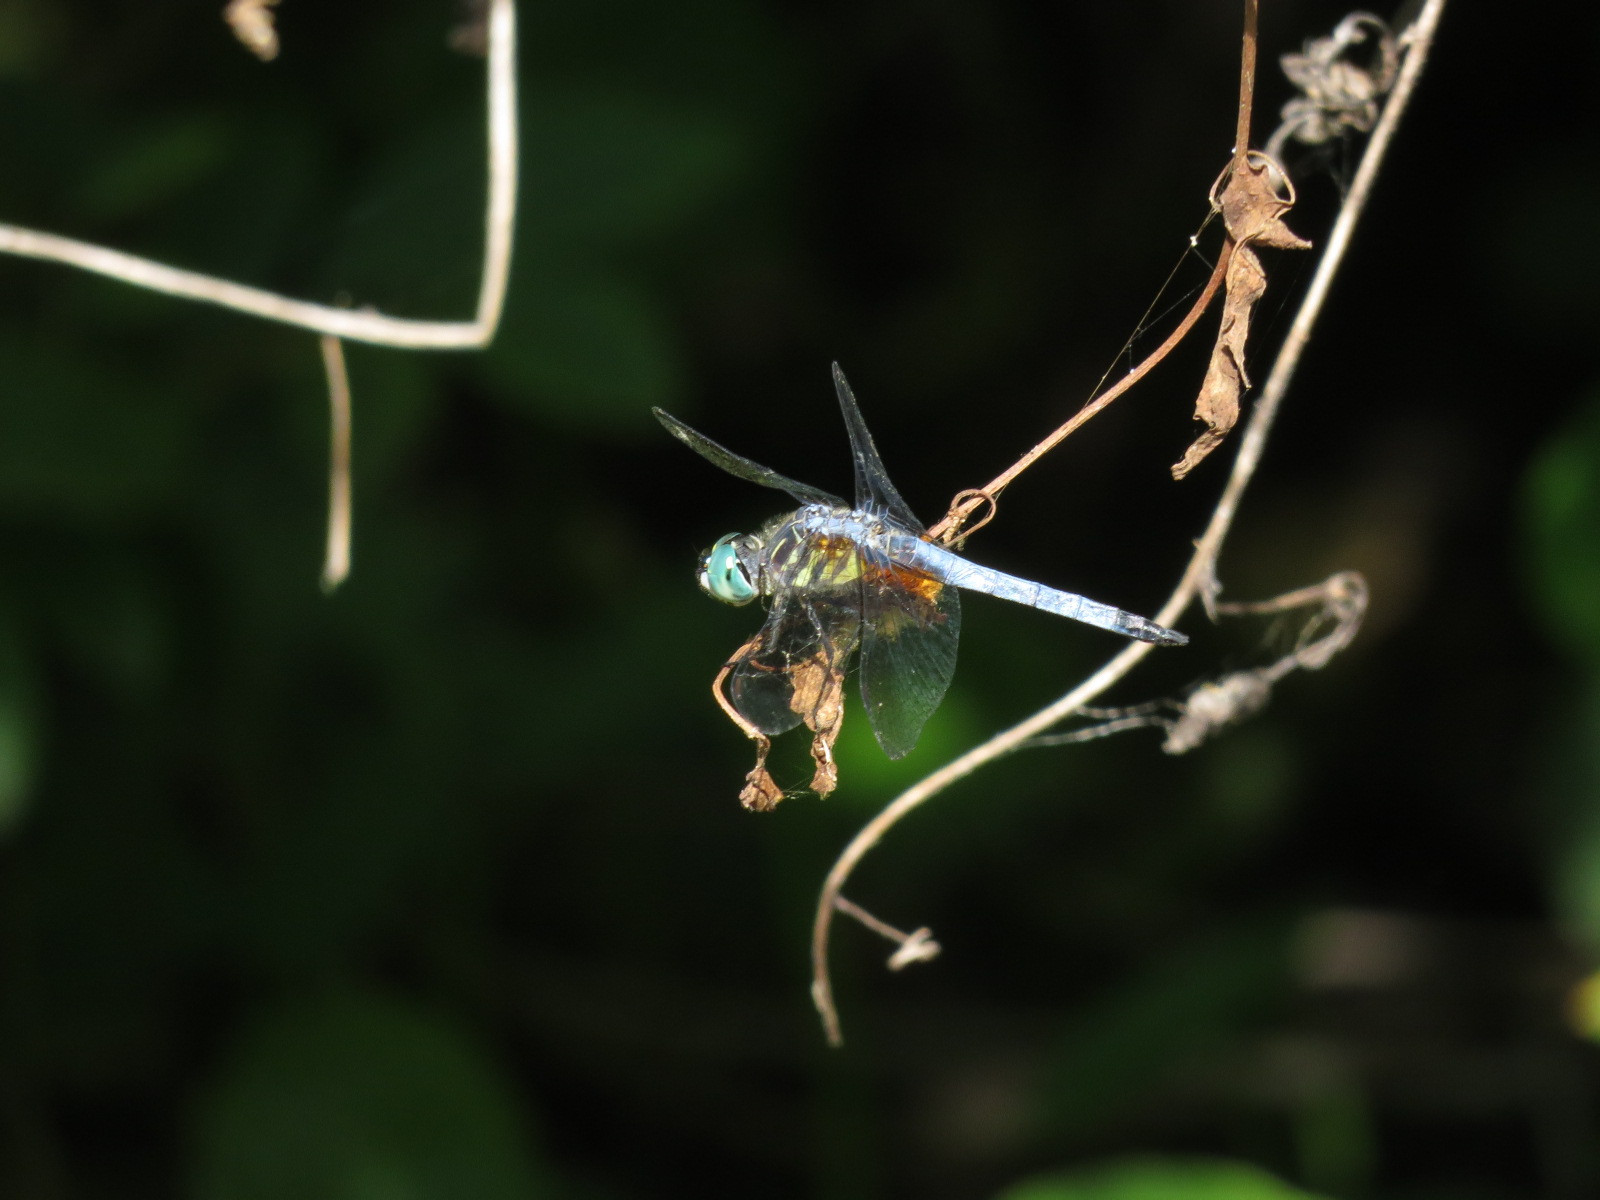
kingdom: Animalia
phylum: Arthropoda
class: Insecta
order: Odonata
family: Libellulidae
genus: Pachydiplax
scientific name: Pachydiplax longipennis
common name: Blue dasher
